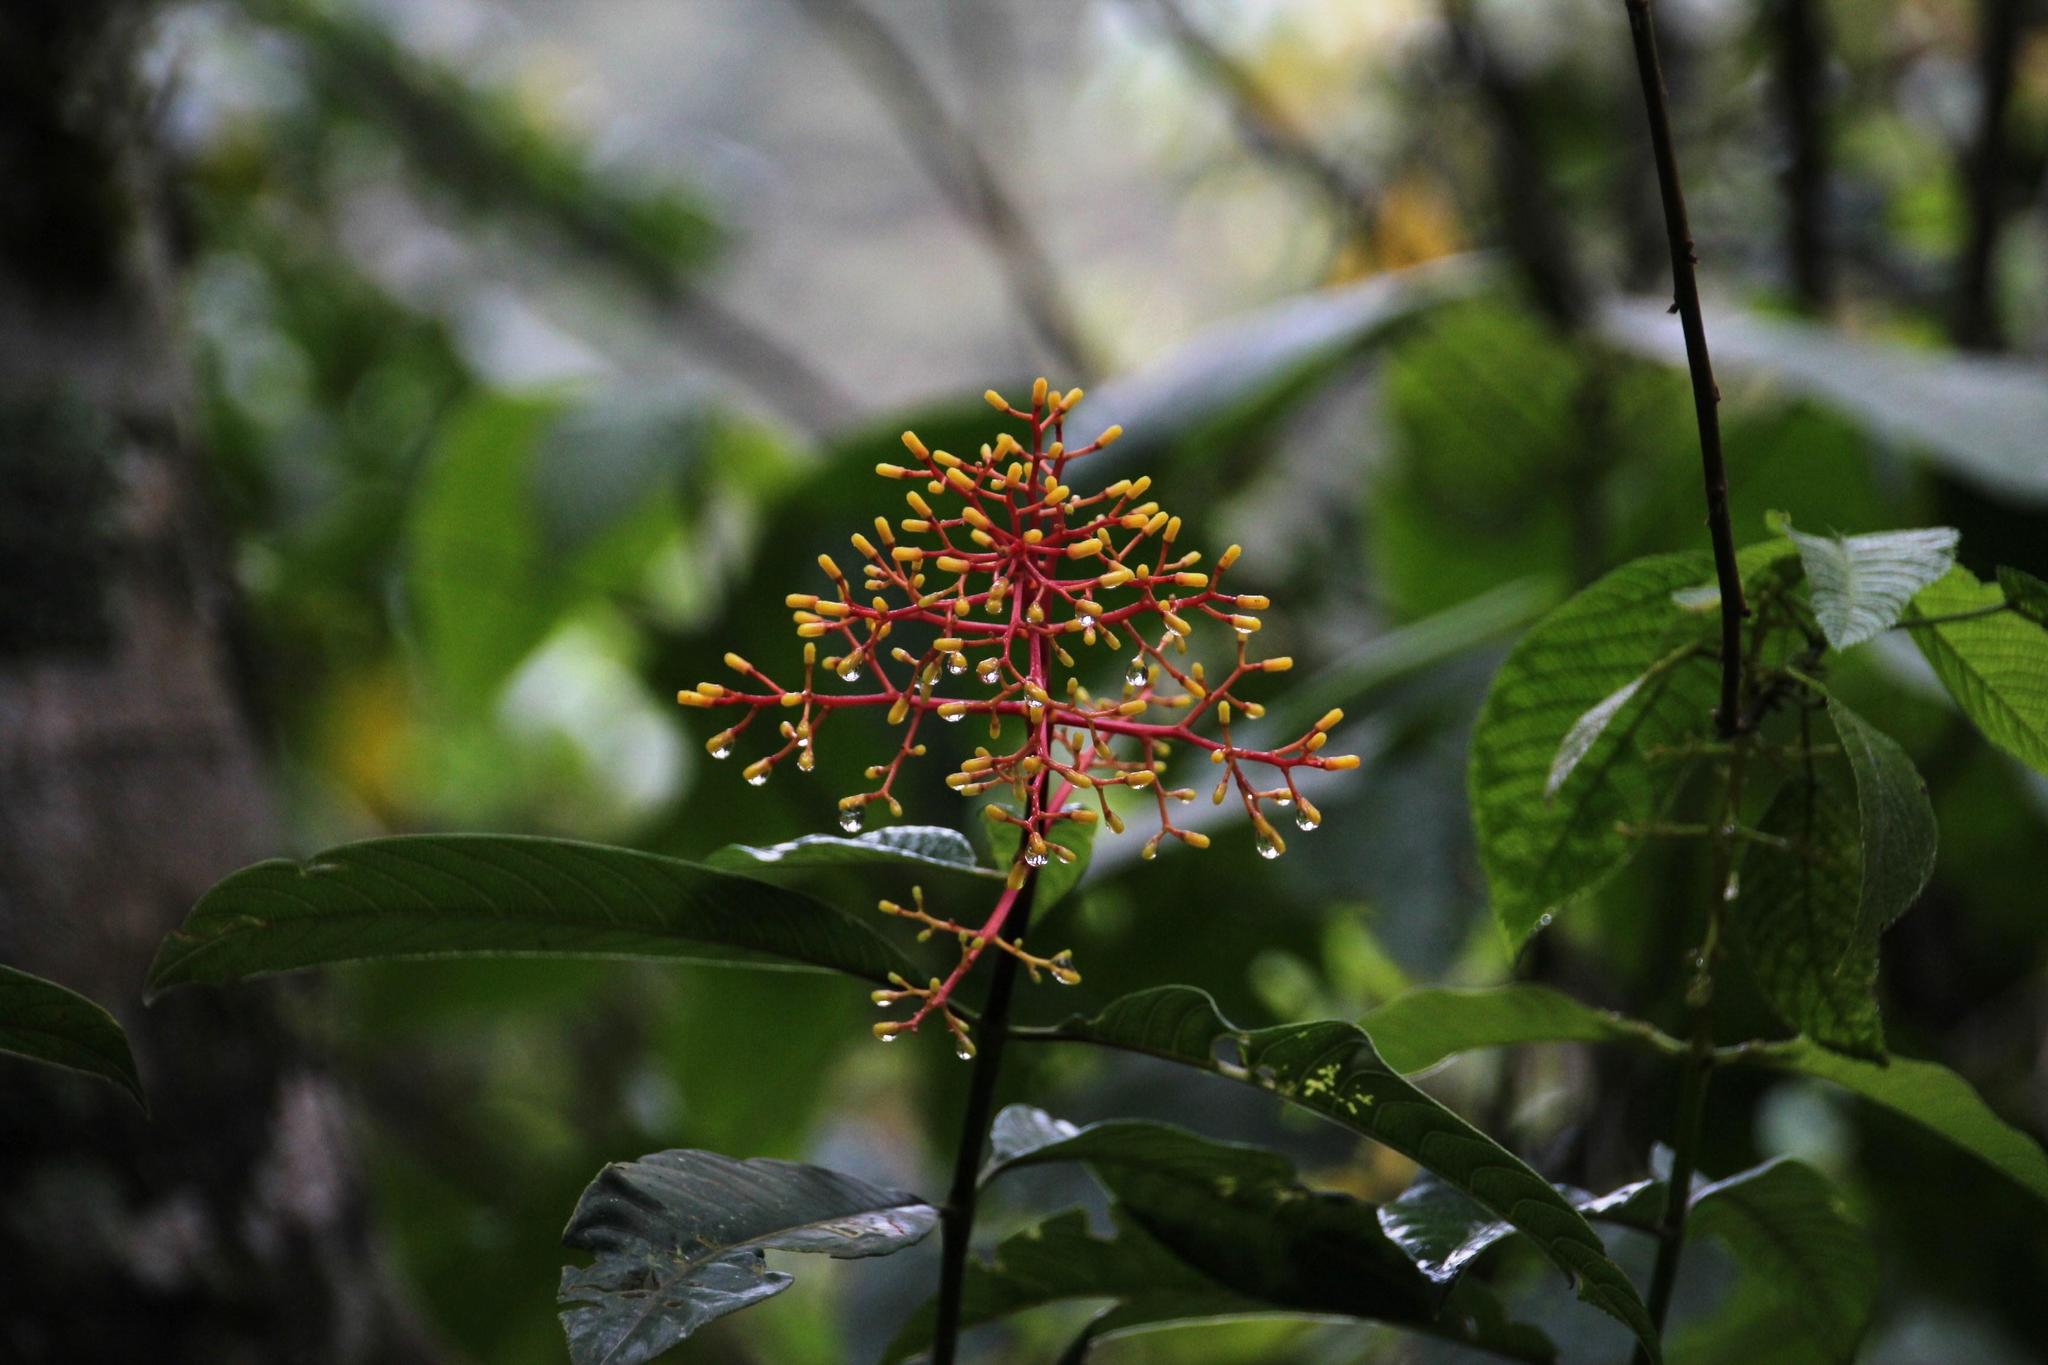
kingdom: Plantae
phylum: Tracheophyta
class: Magnoliopsida
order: Gentianales
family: Rubiaceae
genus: Palicourea
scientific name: Palicourea thyrsiflora
